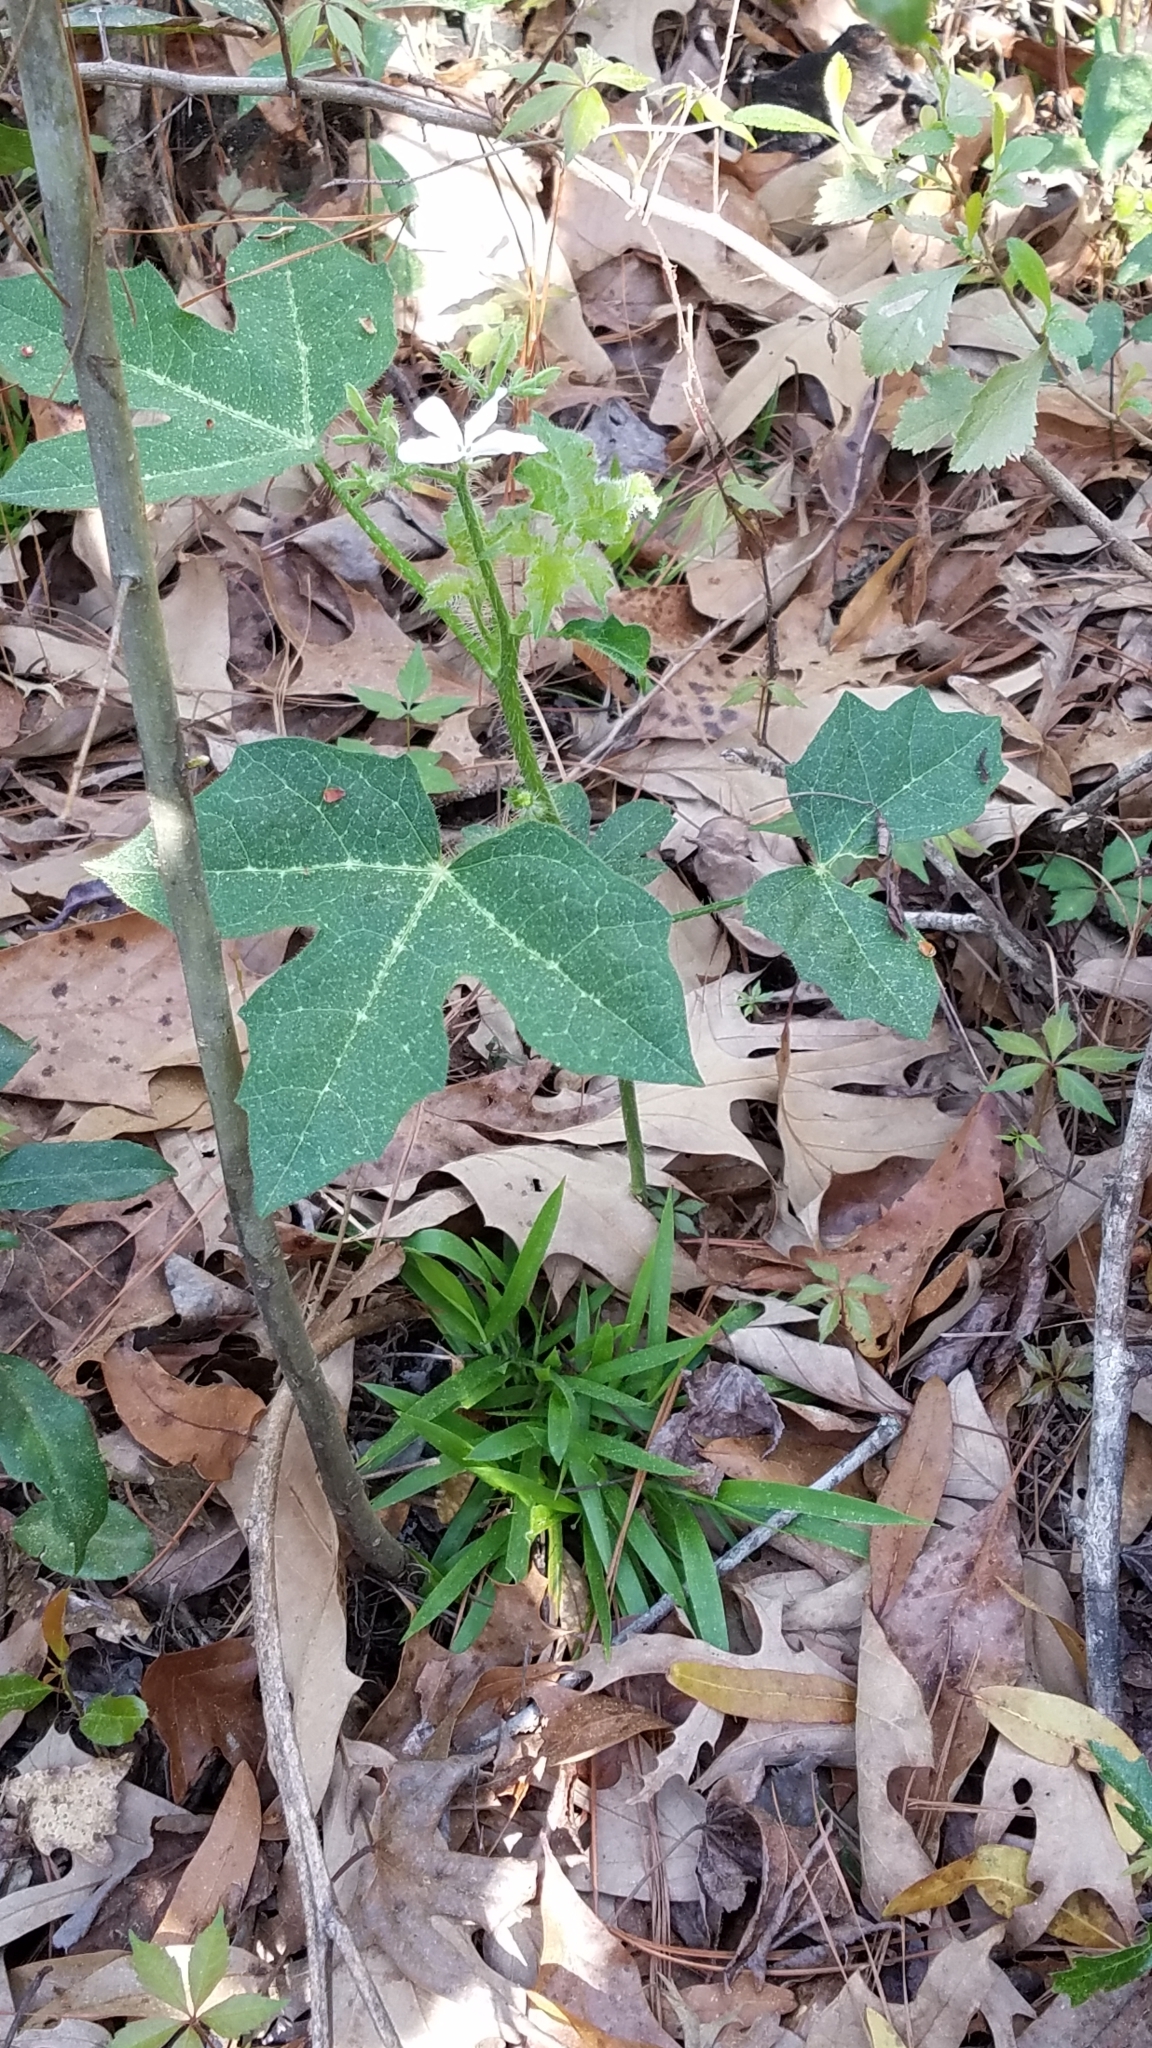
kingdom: Plantae
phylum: Tracheophyta
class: Magnoliopsida
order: Malpighiales
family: Euphorbiaceae
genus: Cnidoscolus
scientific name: Cnidoscolus stimulosus
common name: Bull-nettle
